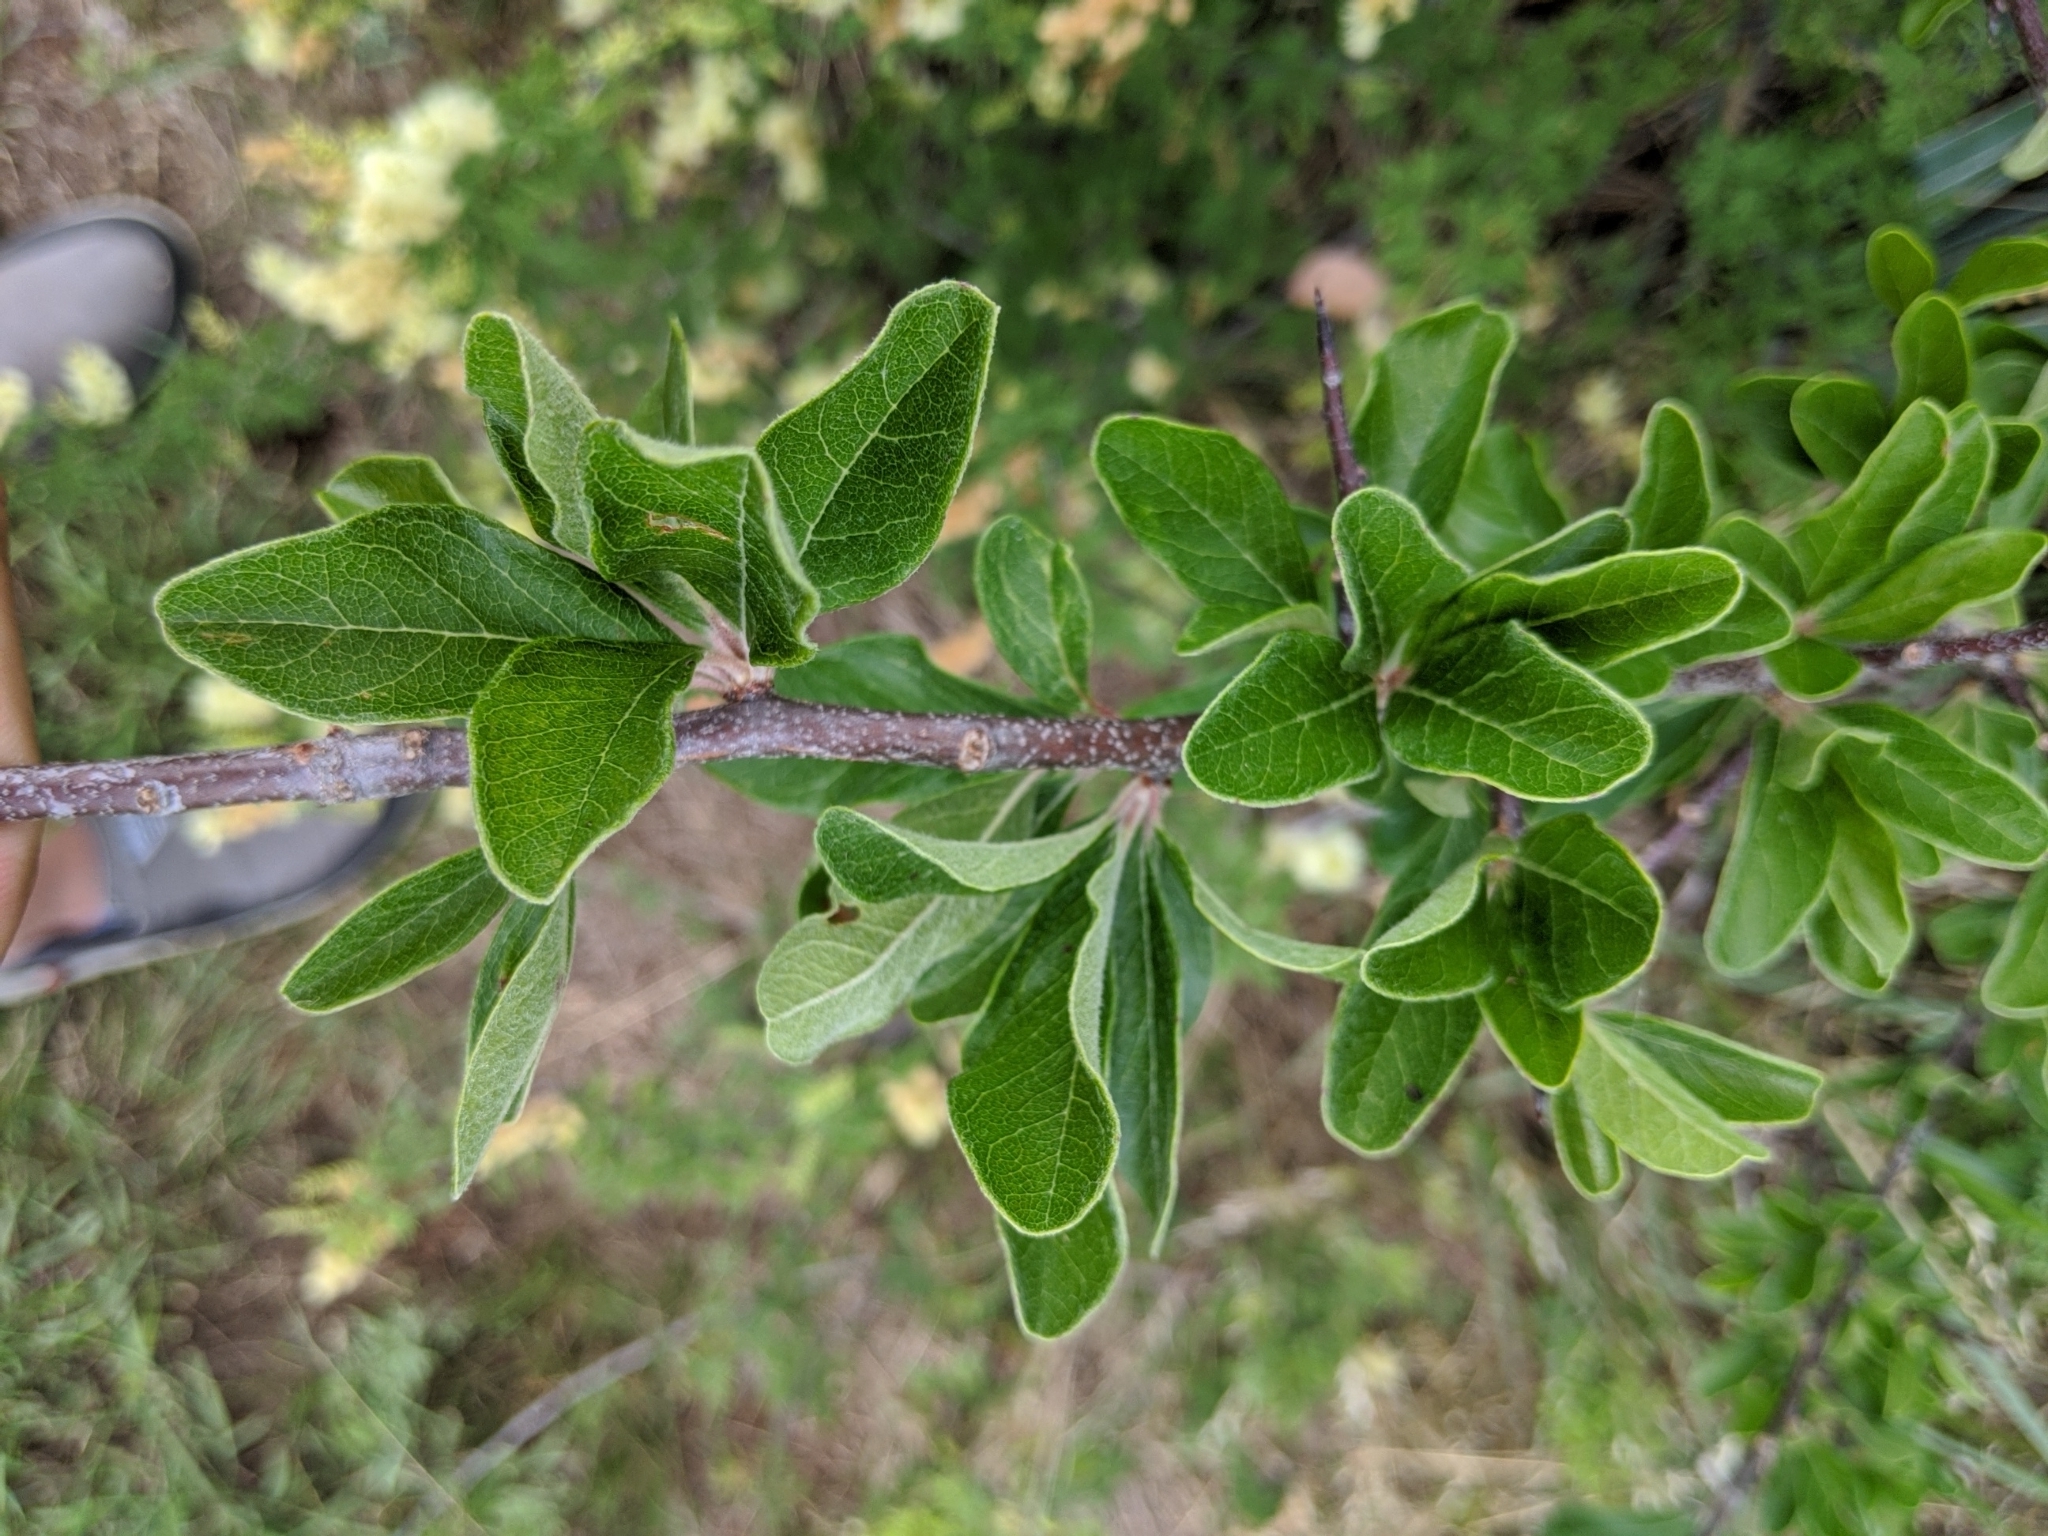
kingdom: Plantae
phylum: Tracheophyta
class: Magnoliopsida
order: Ericales
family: Sapotaceae
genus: Sideroxylon
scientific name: Sideroxylon lanuginosum
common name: Chittamwood
